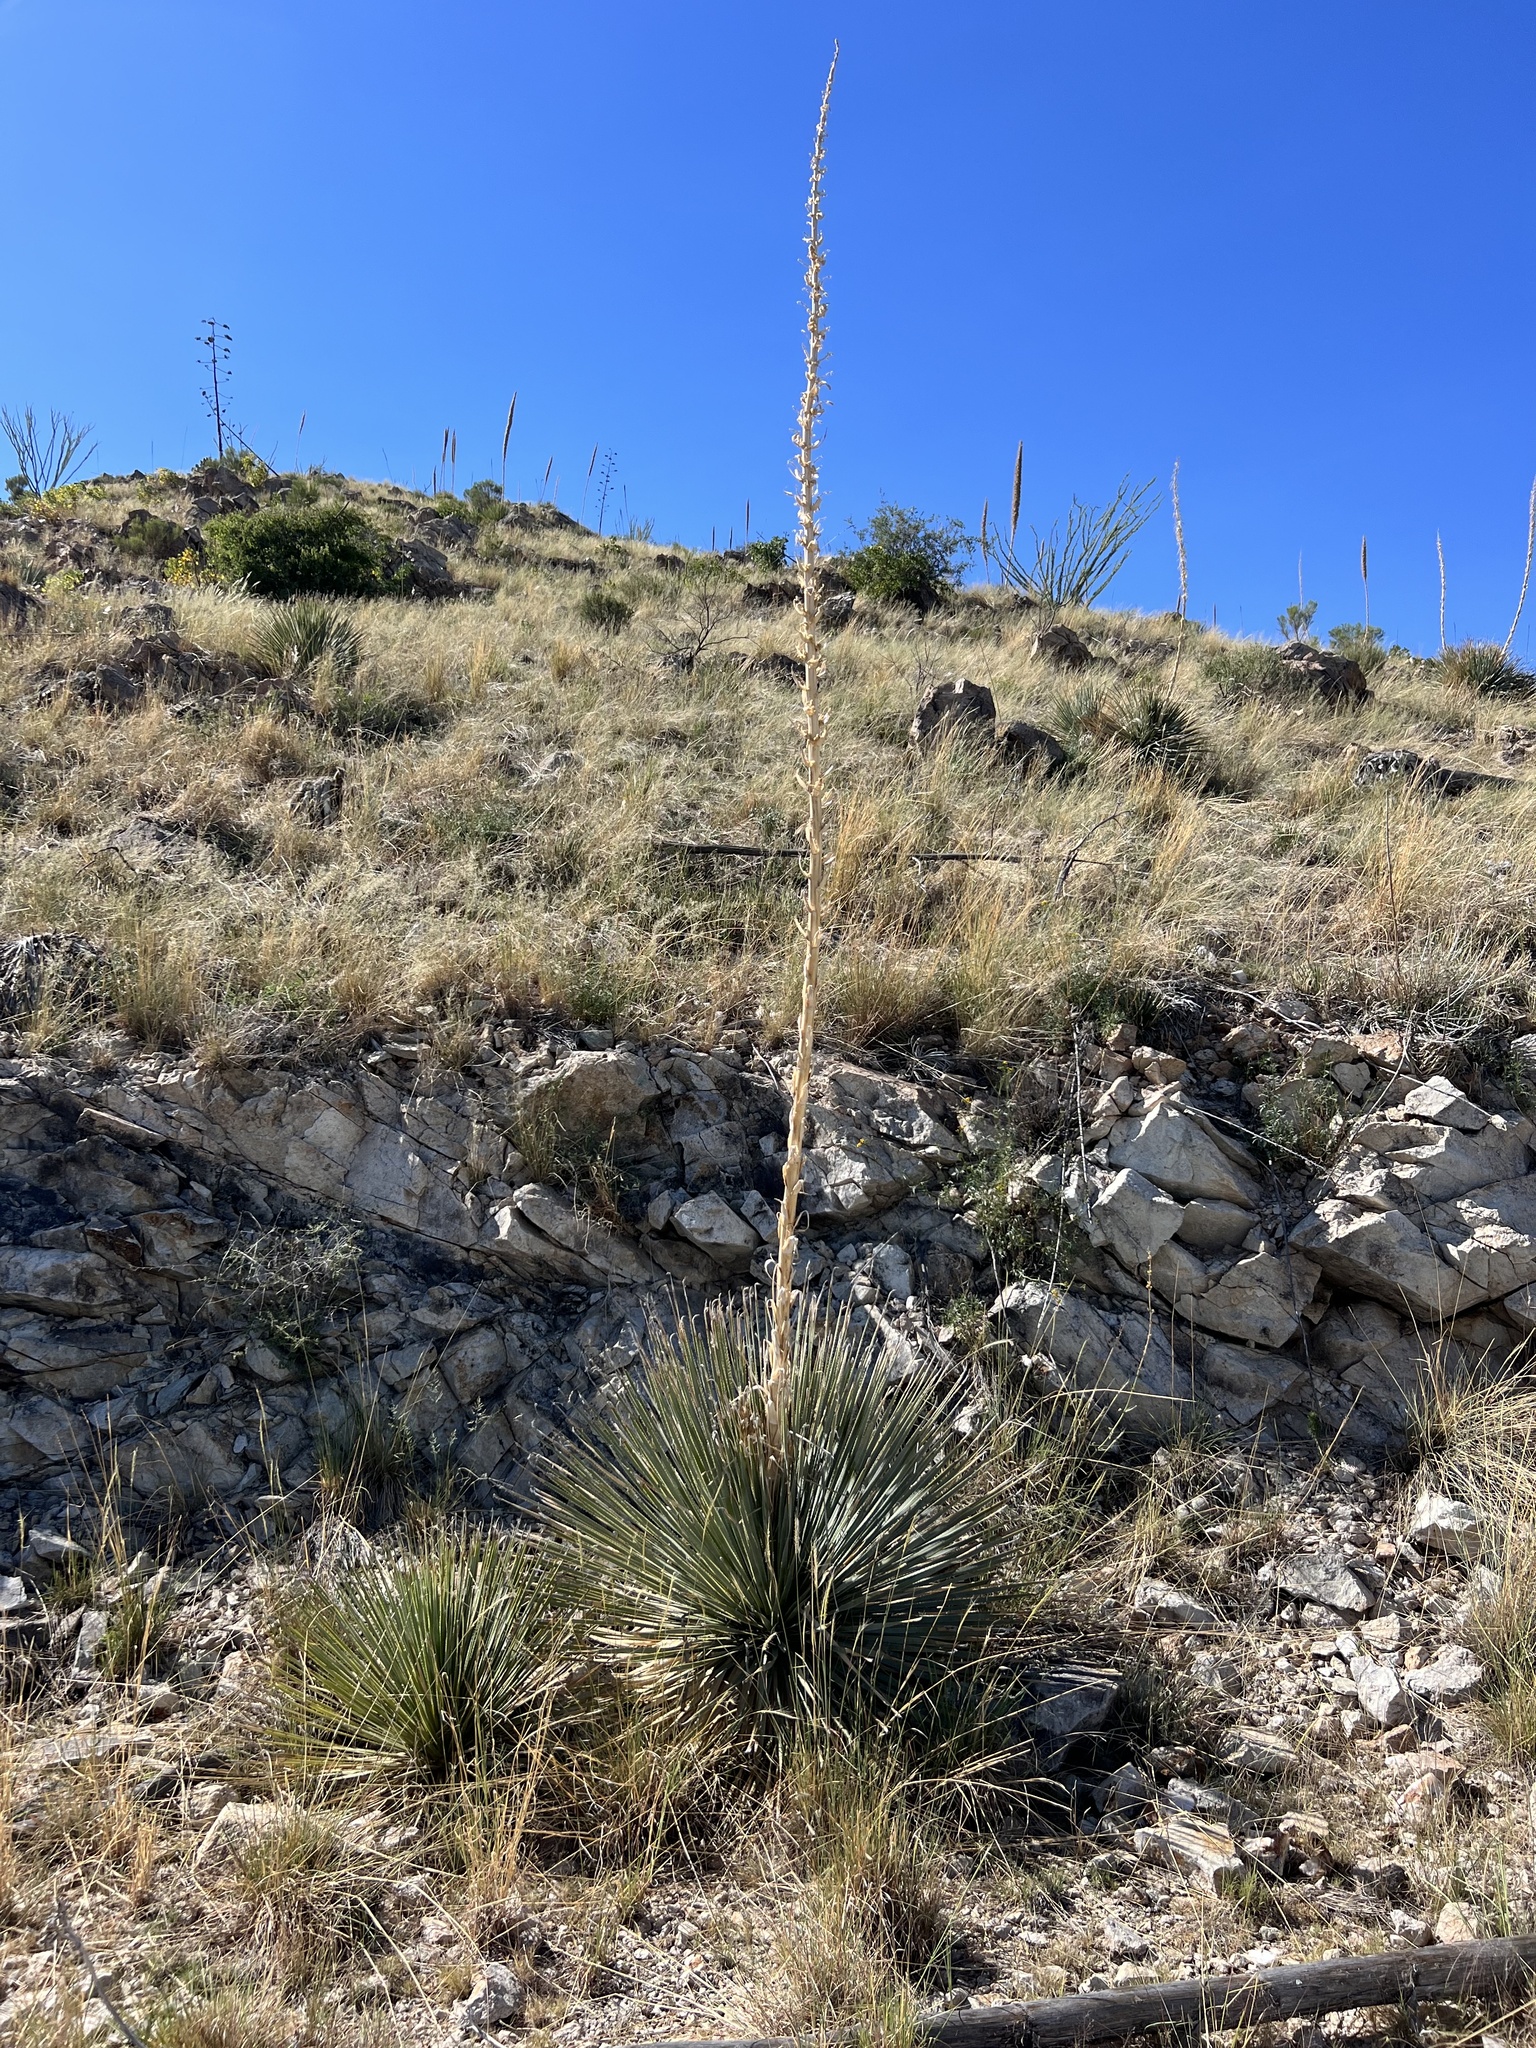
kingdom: Plantae
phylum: Tracheophyta
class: Liliopsida
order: Asparagales
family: Asparagaceae
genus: Dasylirion
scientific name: Dasylirion wheeleri
